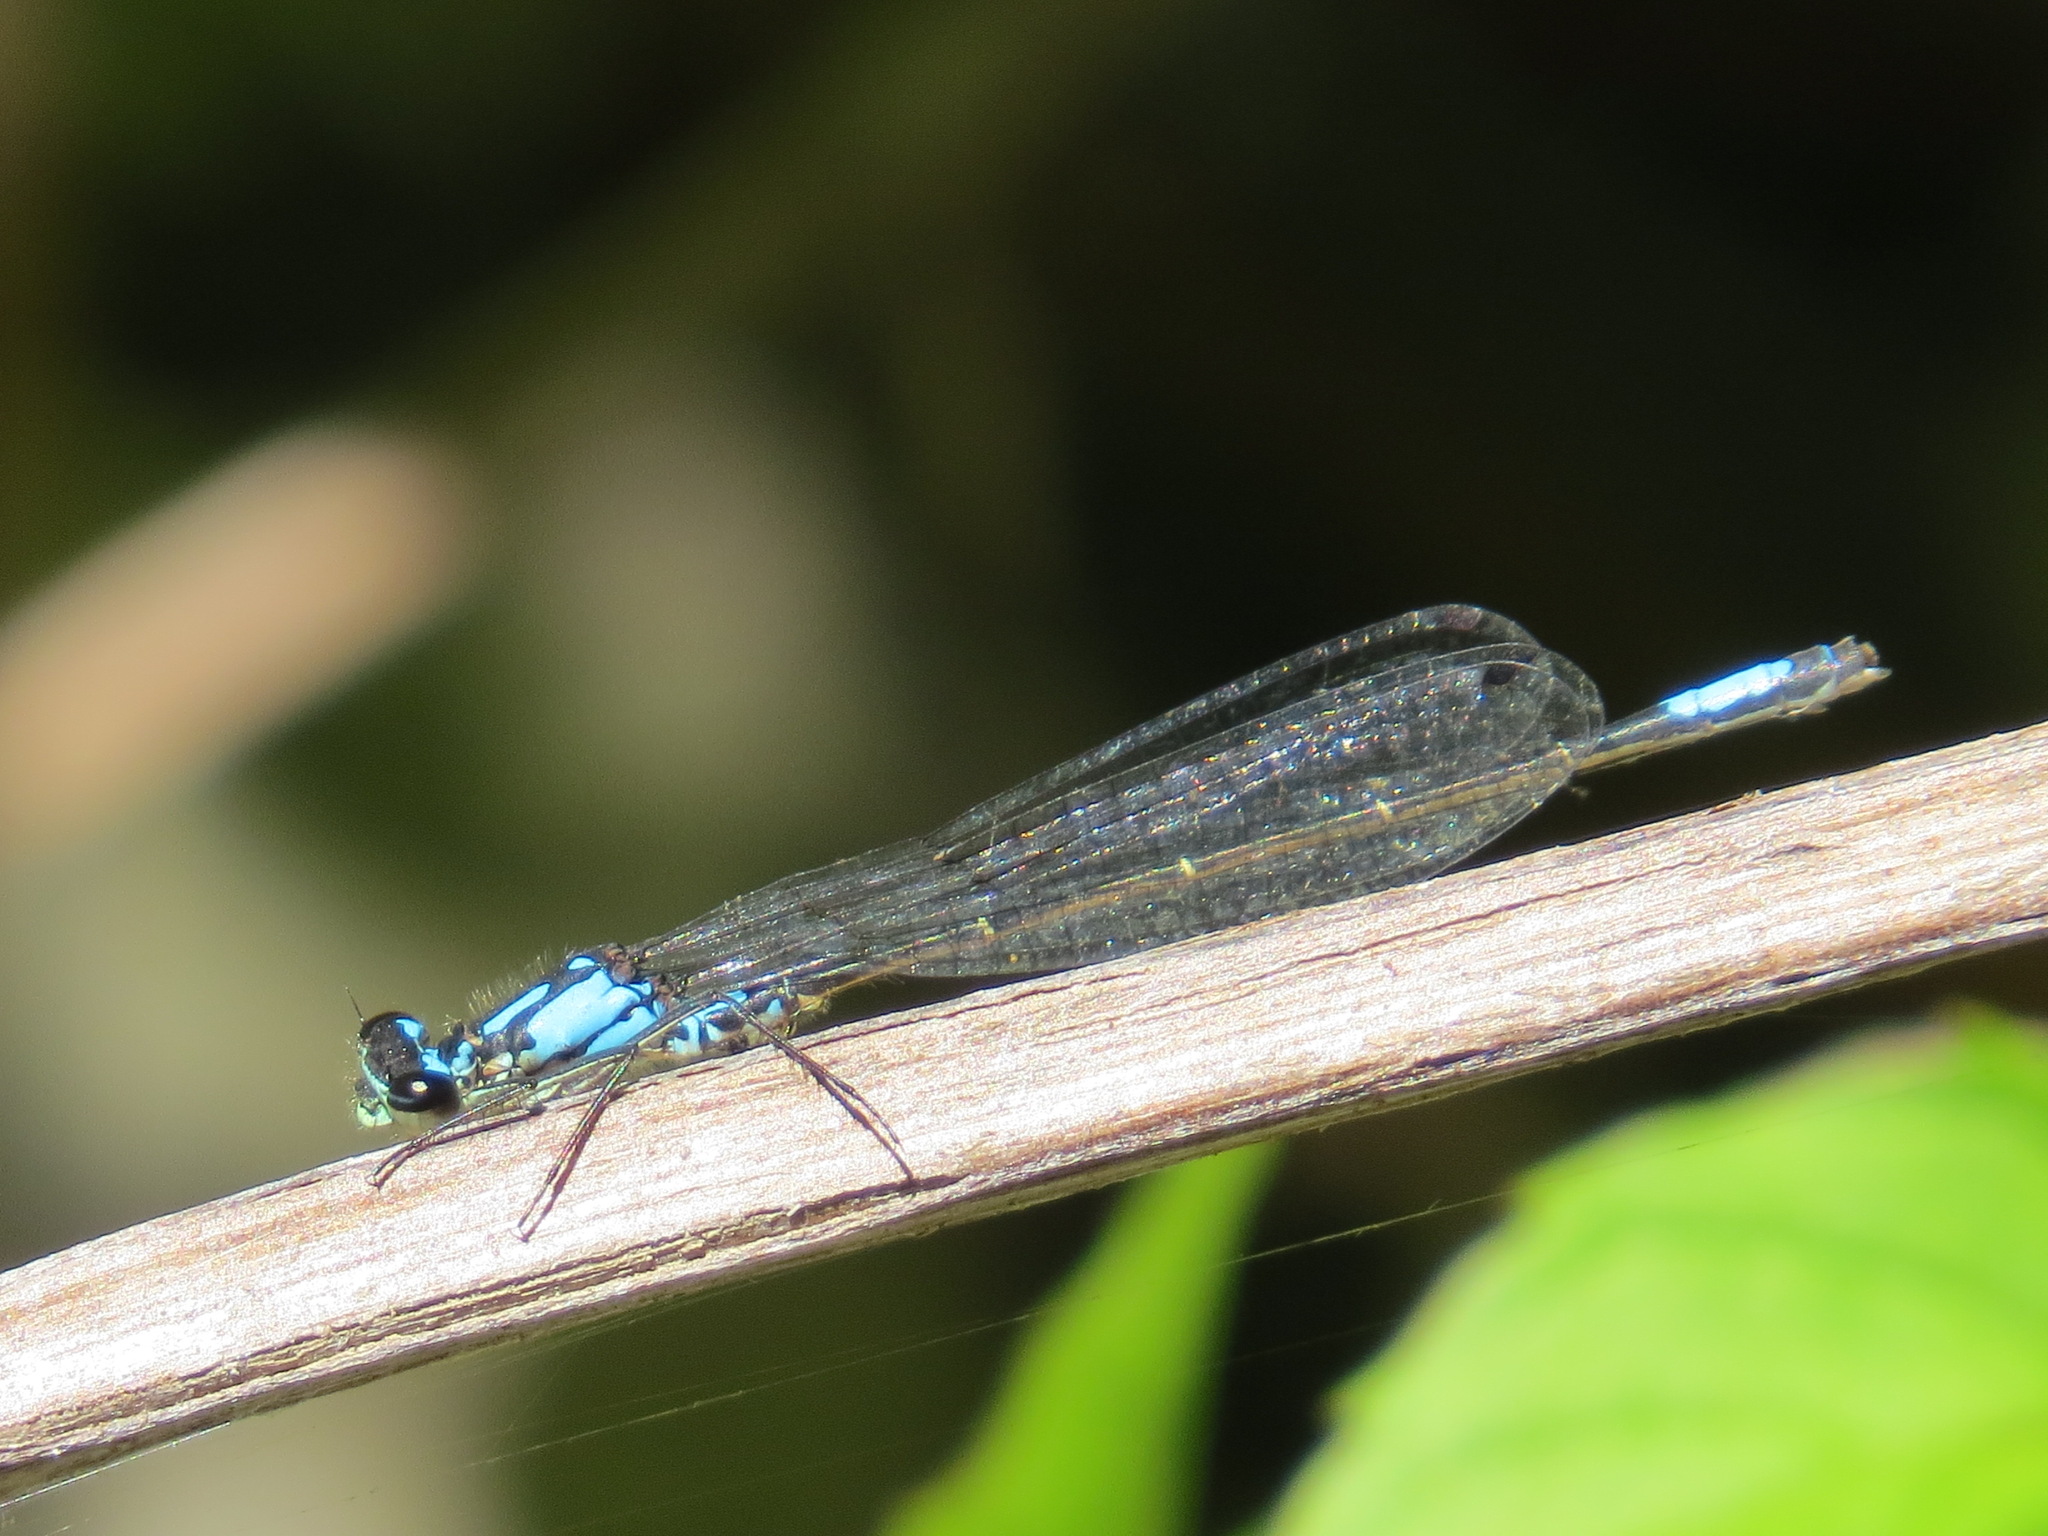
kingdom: Animalia
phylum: Arthropoda
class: Insecta
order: Odonata
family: Coenagrionidae
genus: Zoniagrion
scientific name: Zoniagrion exclamationis
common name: Exclamation damsel
